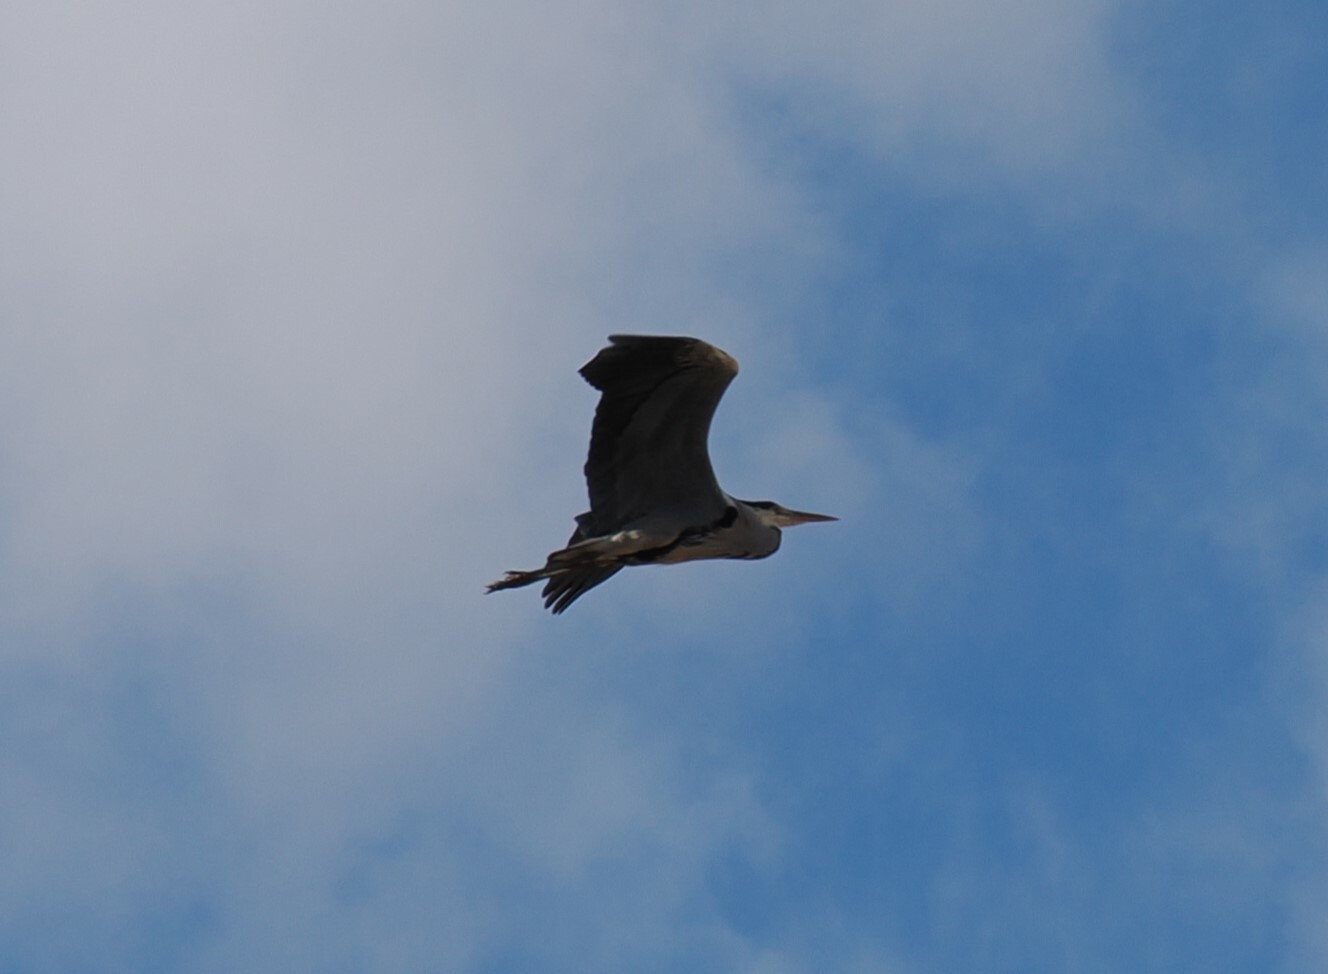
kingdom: Animalia
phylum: Chordata
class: Aves
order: Pelecaniformes
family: Ardeidae
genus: Ardea
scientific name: Ardea cinerea
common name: Grey heron
